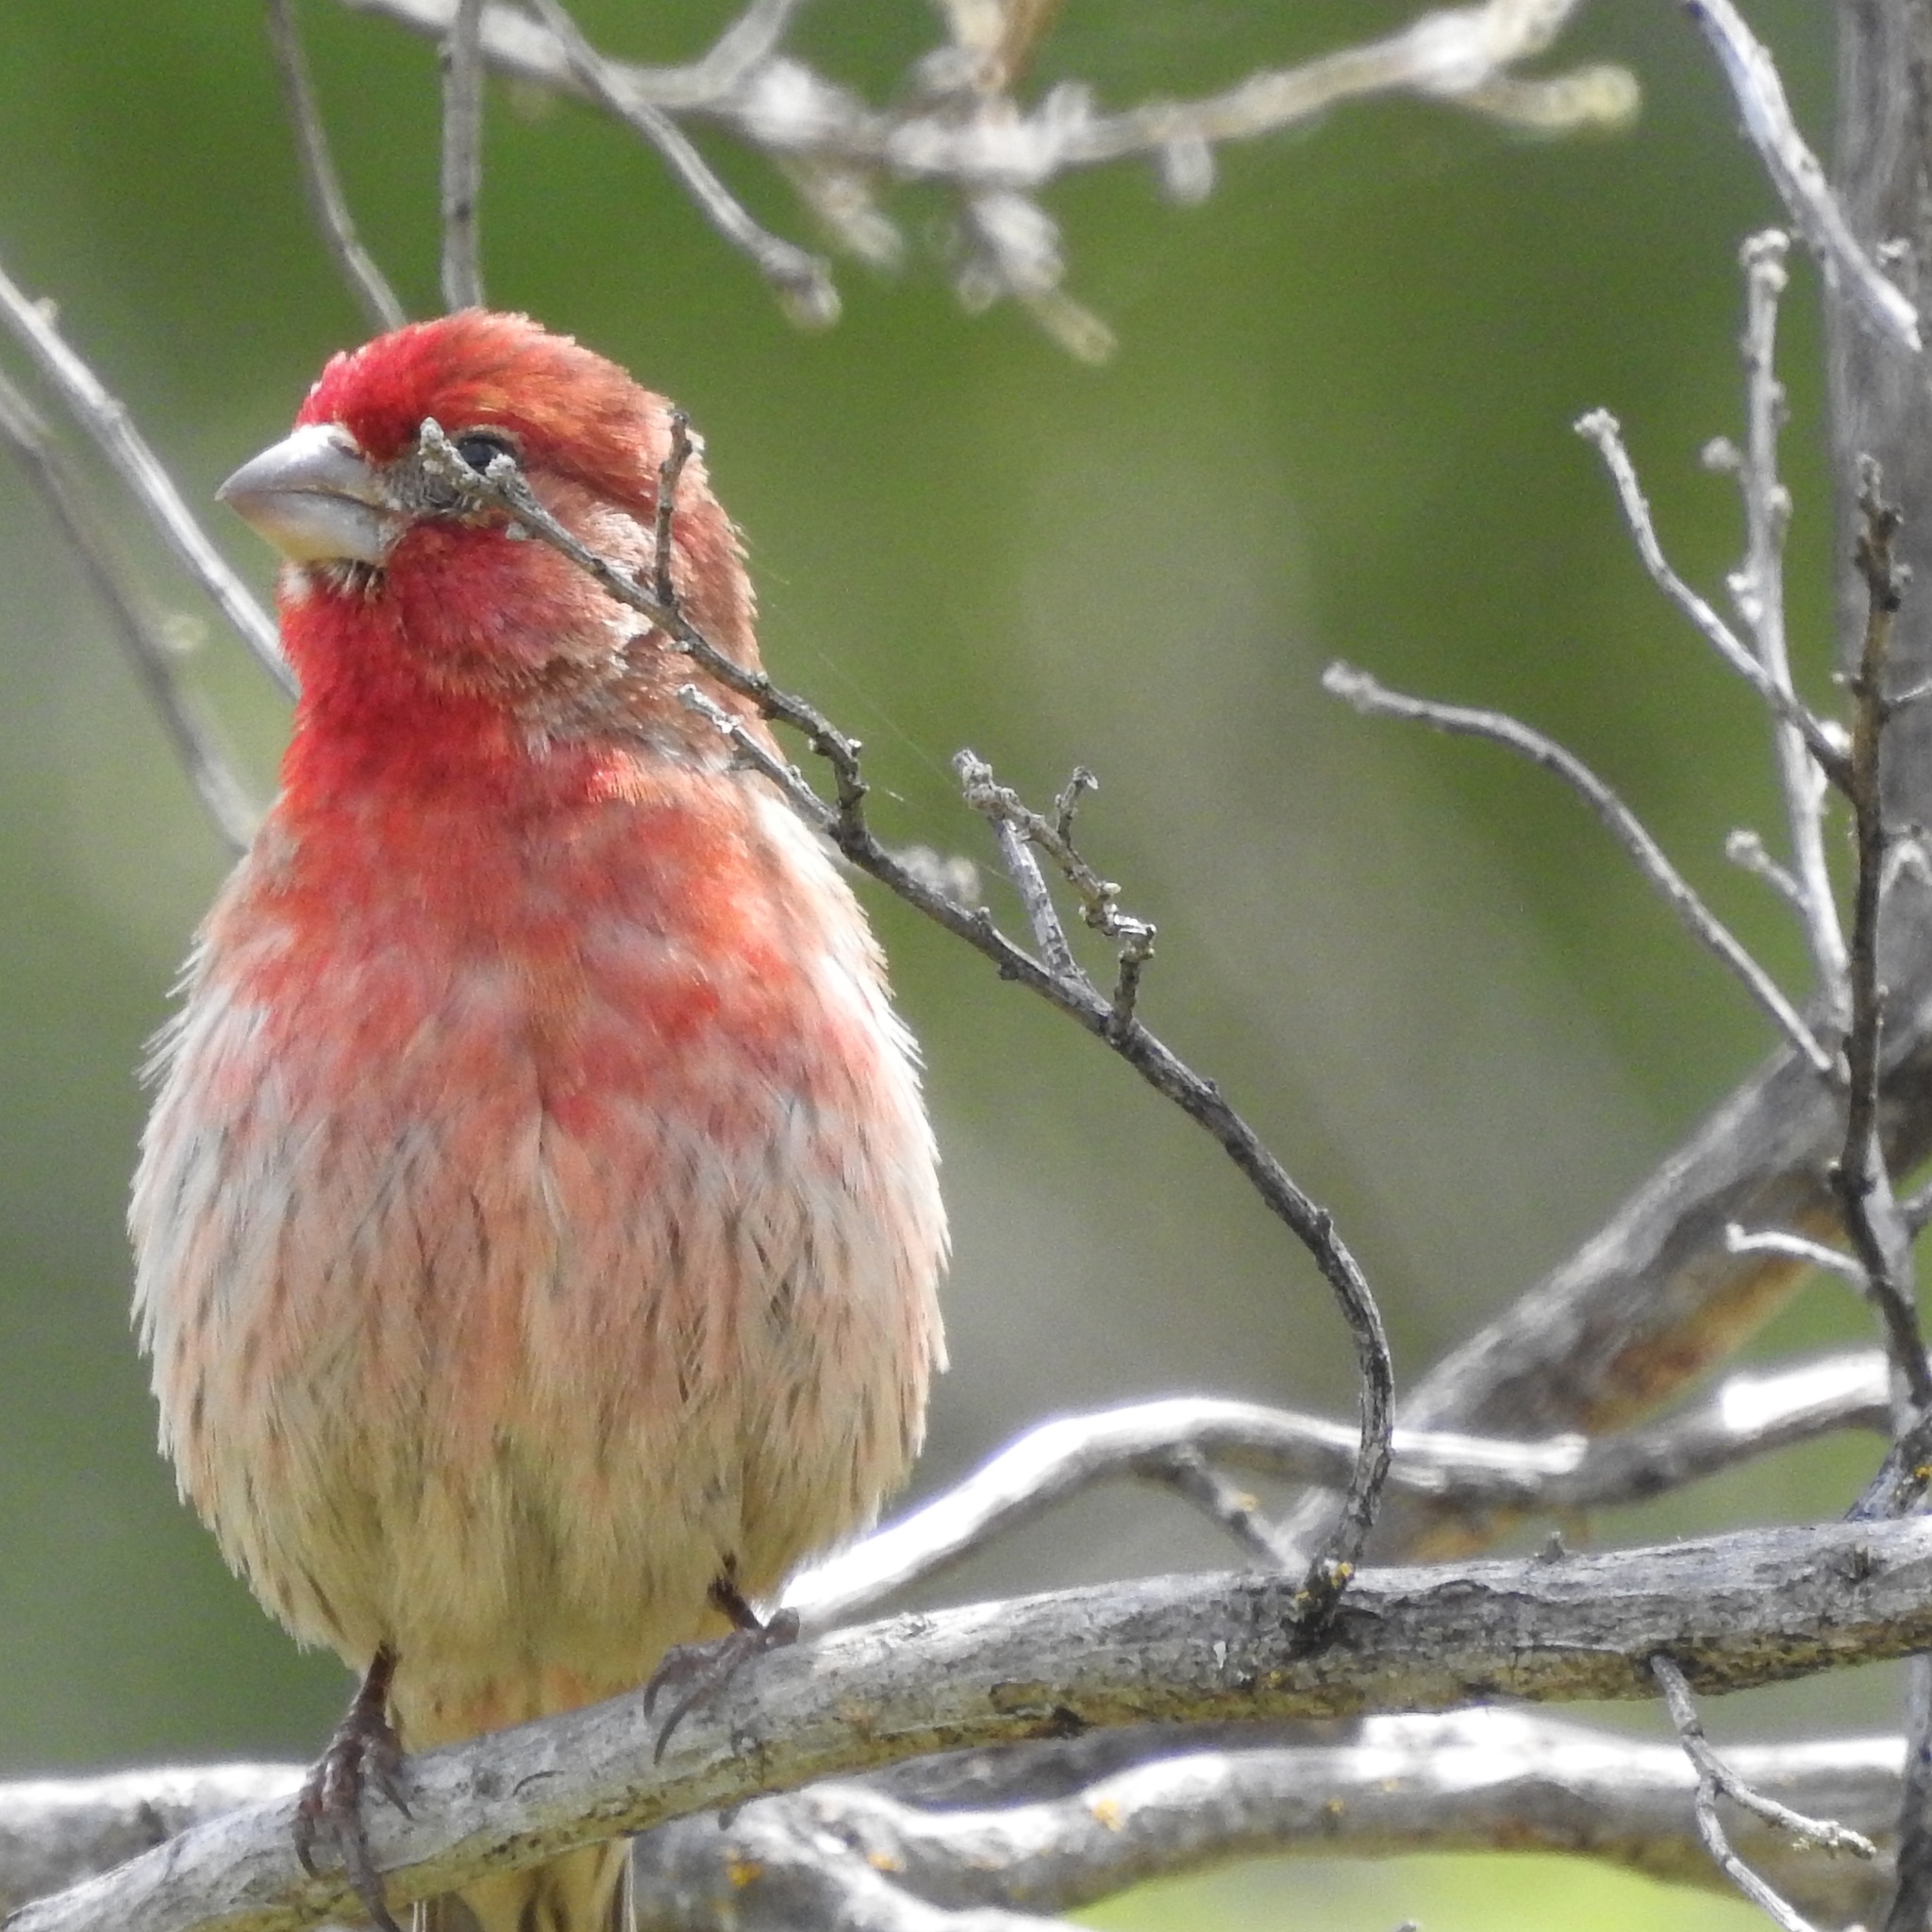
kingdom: Animalia
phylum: Chordata
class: Aves
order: Passeriformes
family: Fringillidae
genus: Haemorhous
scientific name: Haemorhous mexicanus
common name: House finch
